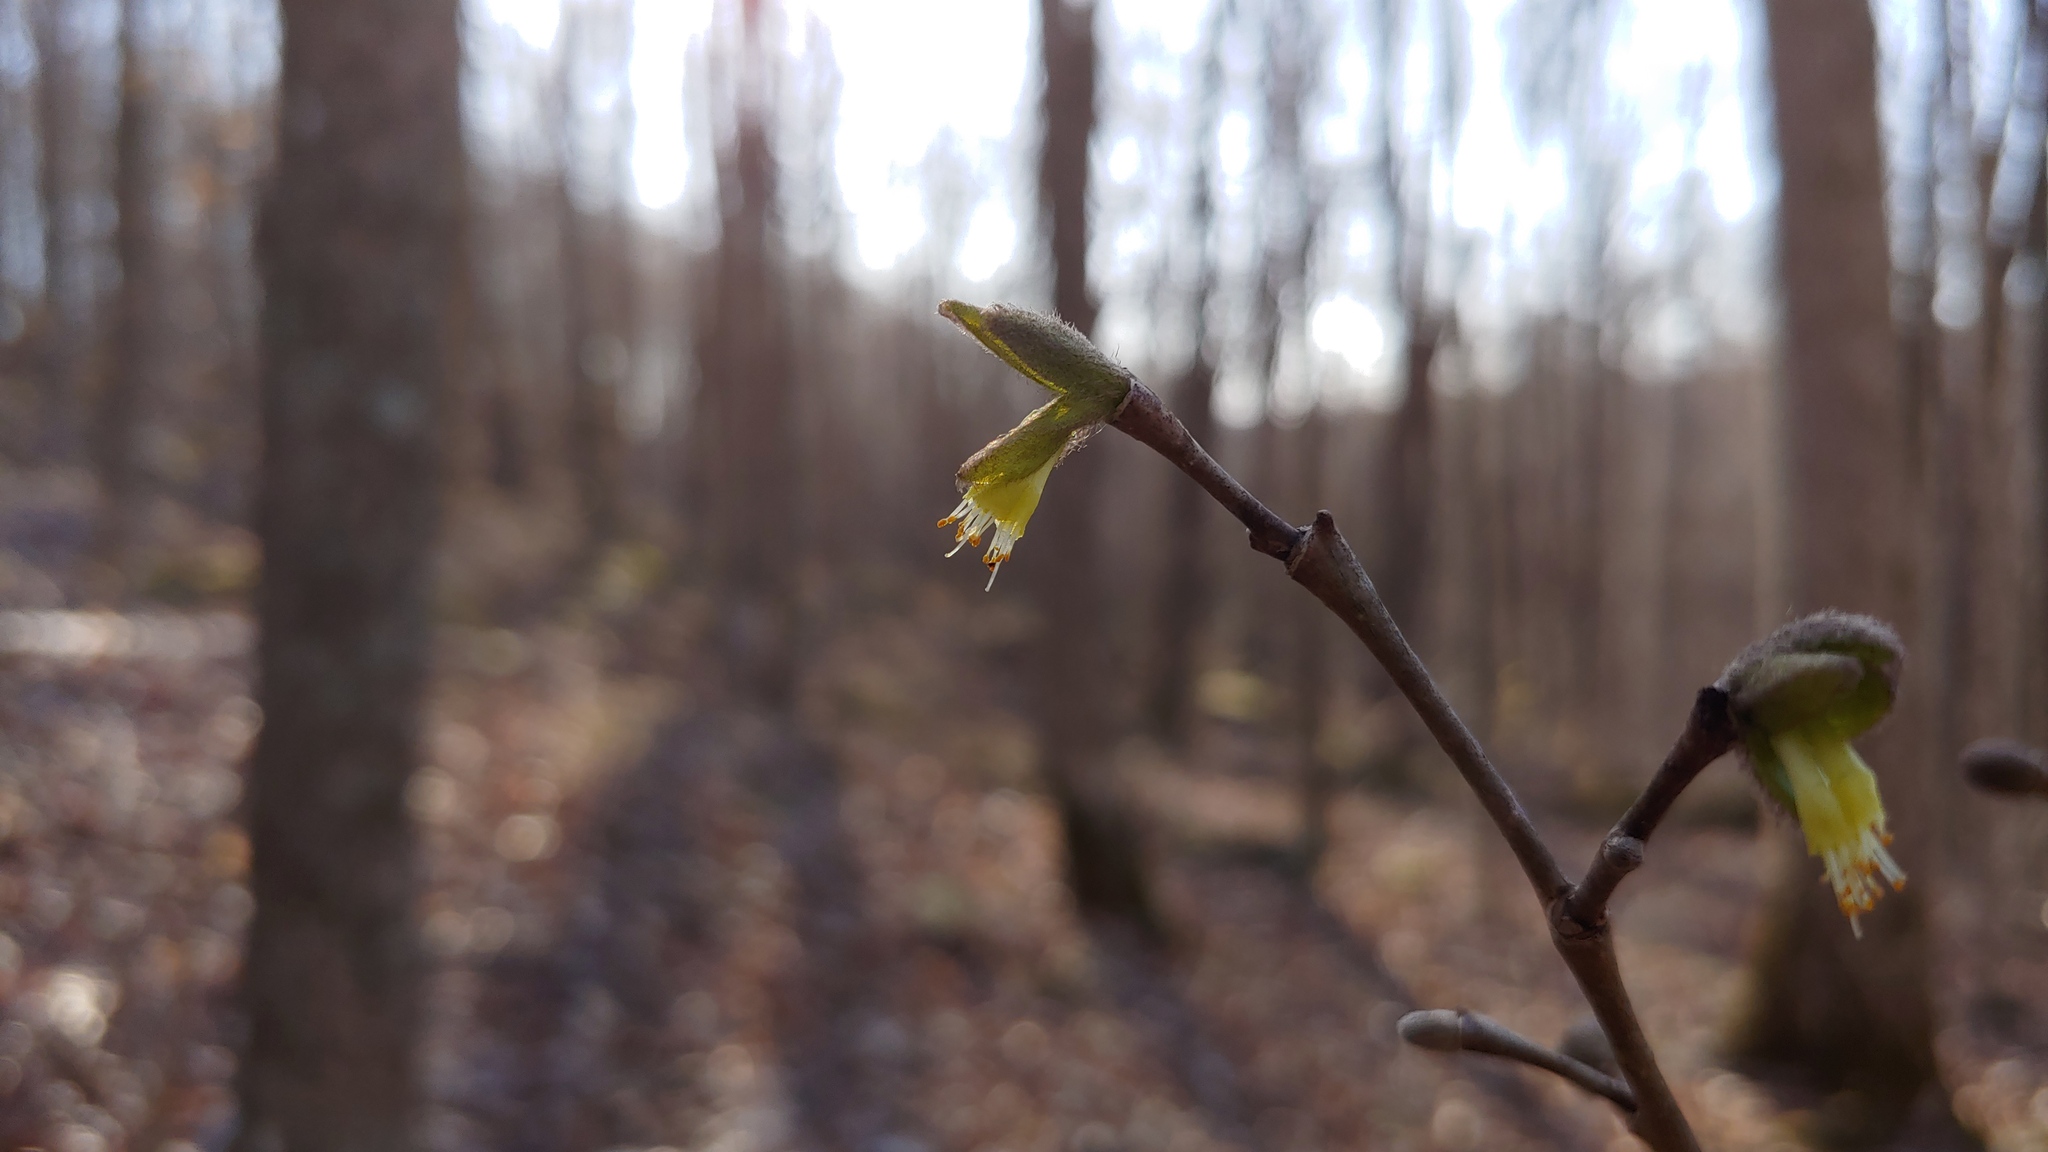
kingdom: Plantae
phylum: Tracheophyta
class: Magnoliopsida
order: Malvales
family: Thymelaeaceae
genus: Dirca
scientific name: Dirca palustris
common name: Leatherwood
